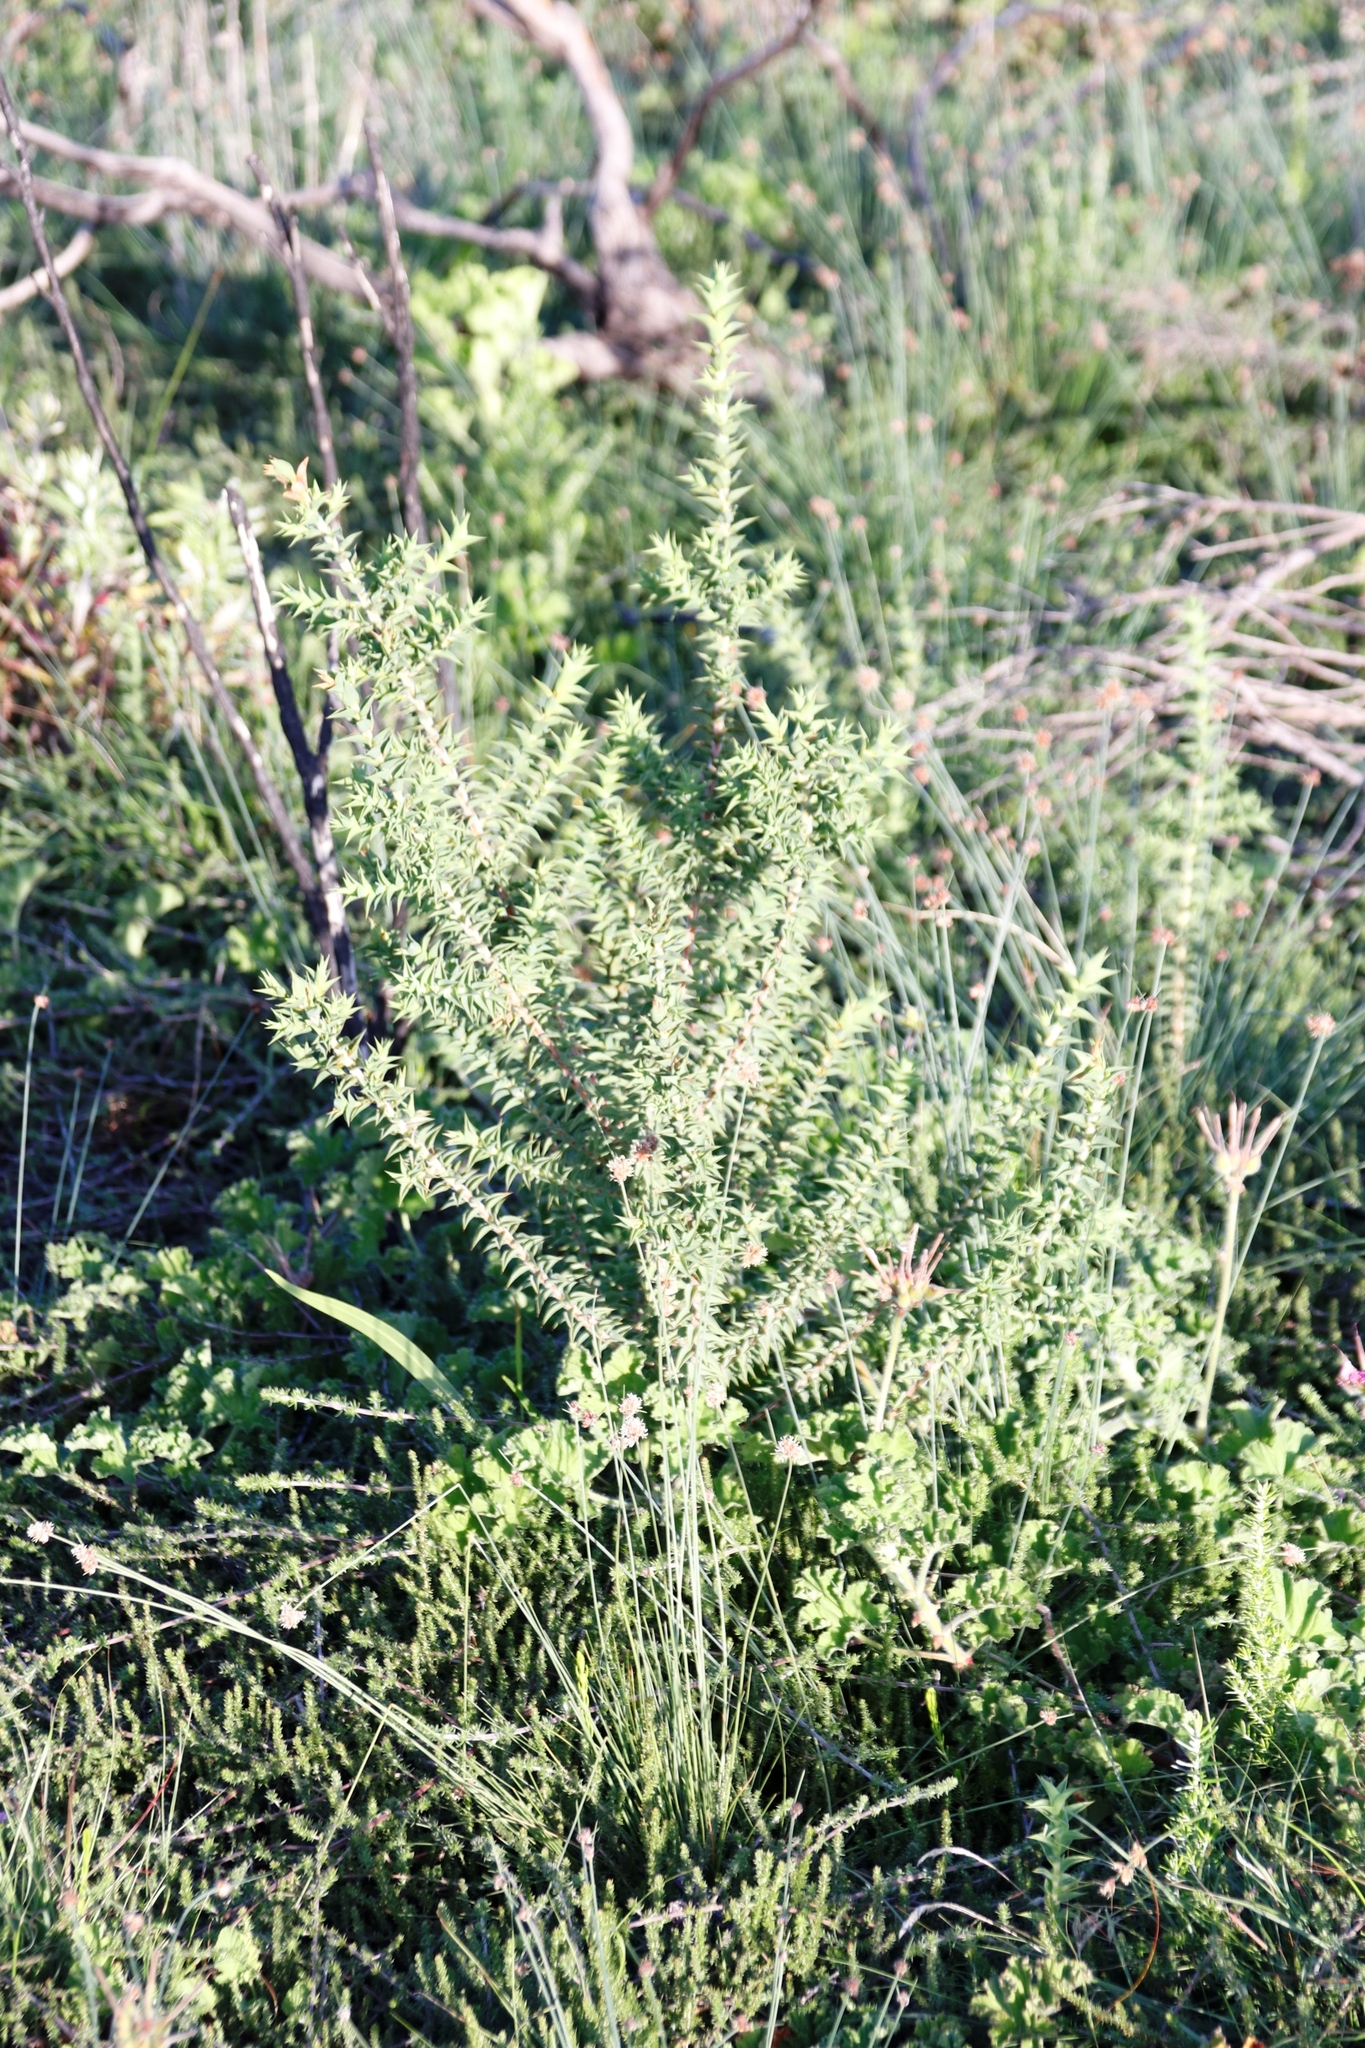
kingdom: Plantae
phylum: Tracheophyta
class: Magnoliopsida
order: Fabales
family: Fabaceae
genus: Aspalathus
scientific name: Aspalathus cordata
